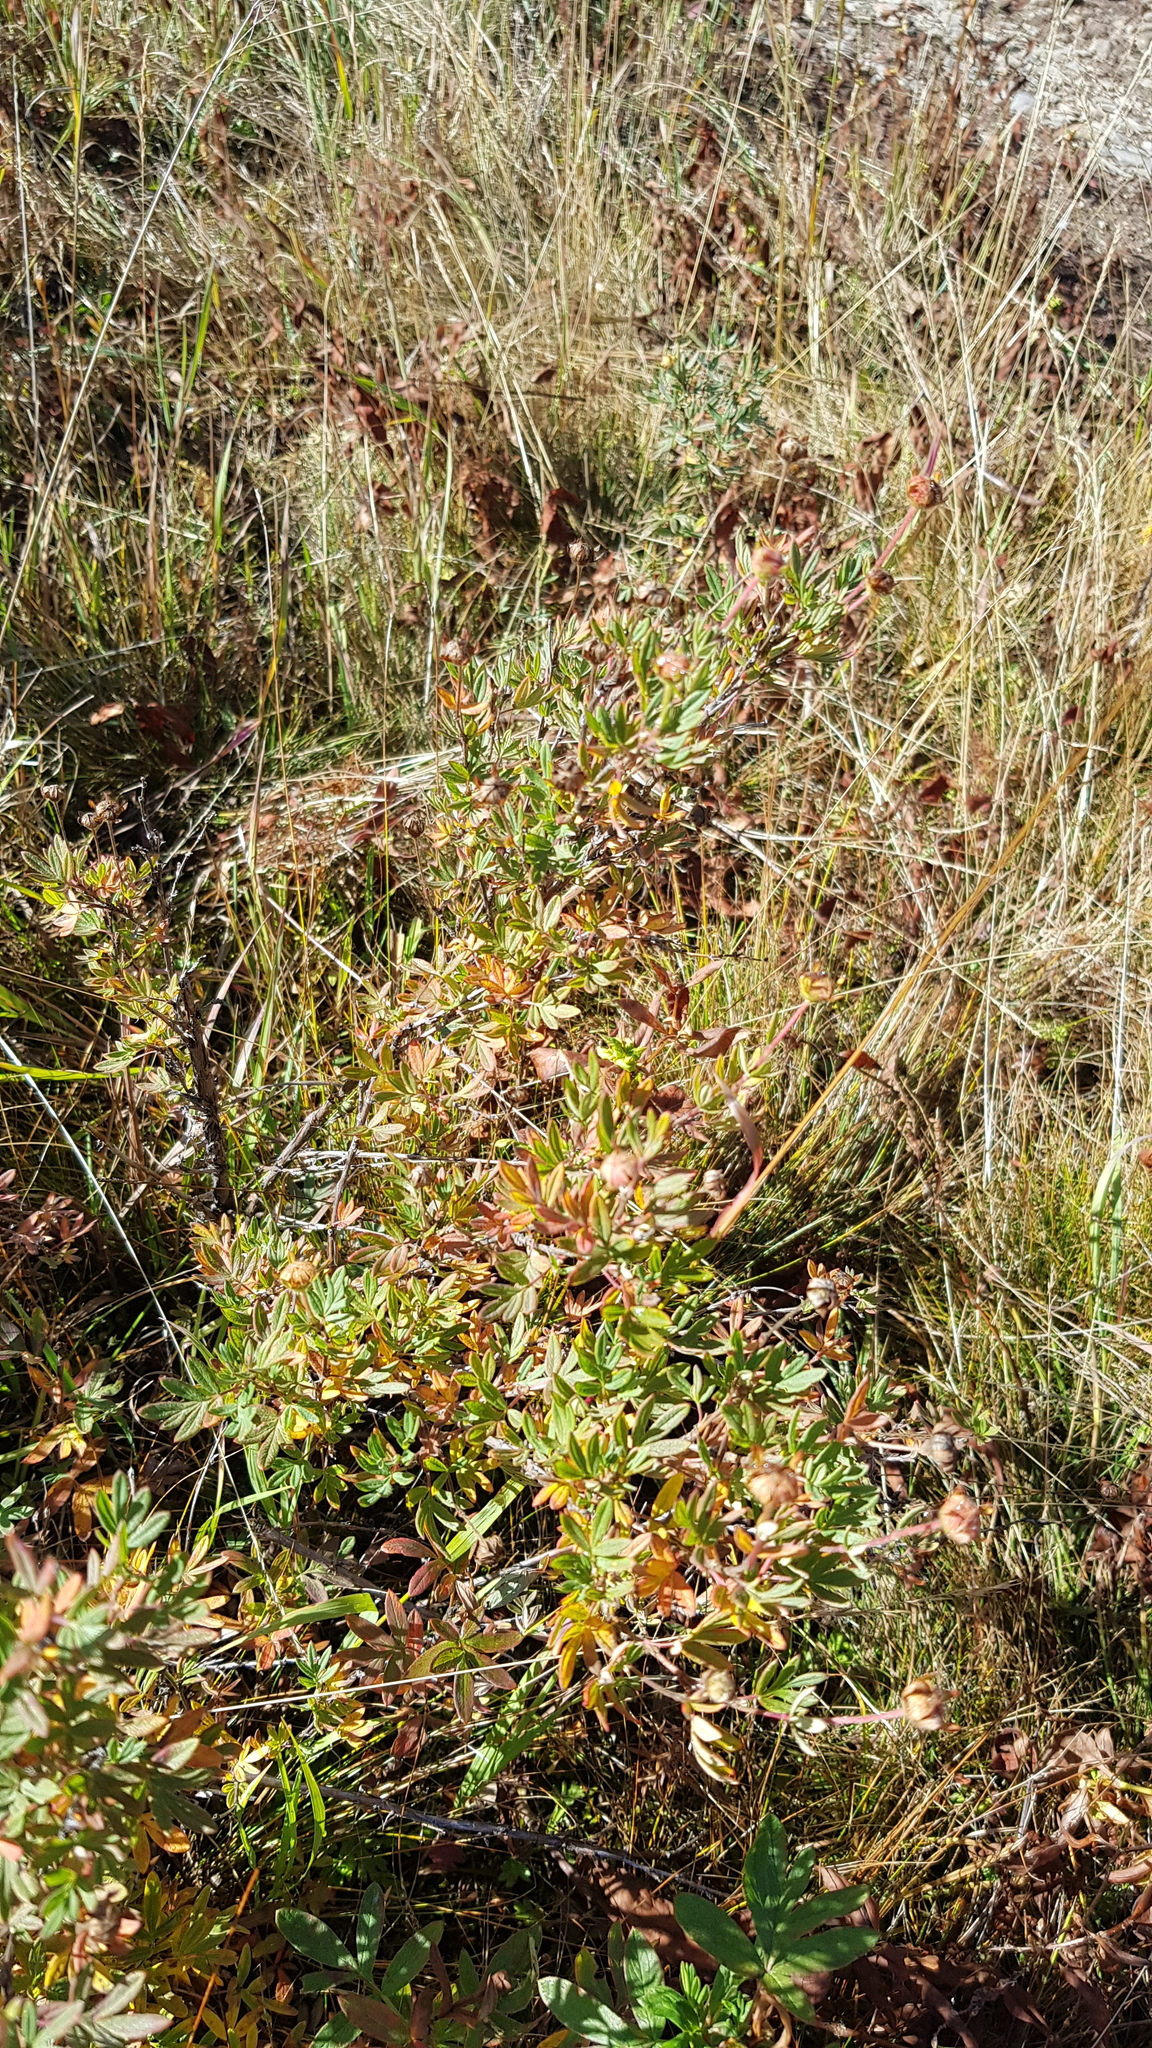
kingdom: Plantae
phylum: Tracheophyta
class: Magnoliopsida
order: Rosales
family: Rosaceae
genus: Dasiphora
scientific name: Dasiphora fruticosa
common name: Shrubby cinquefoil
